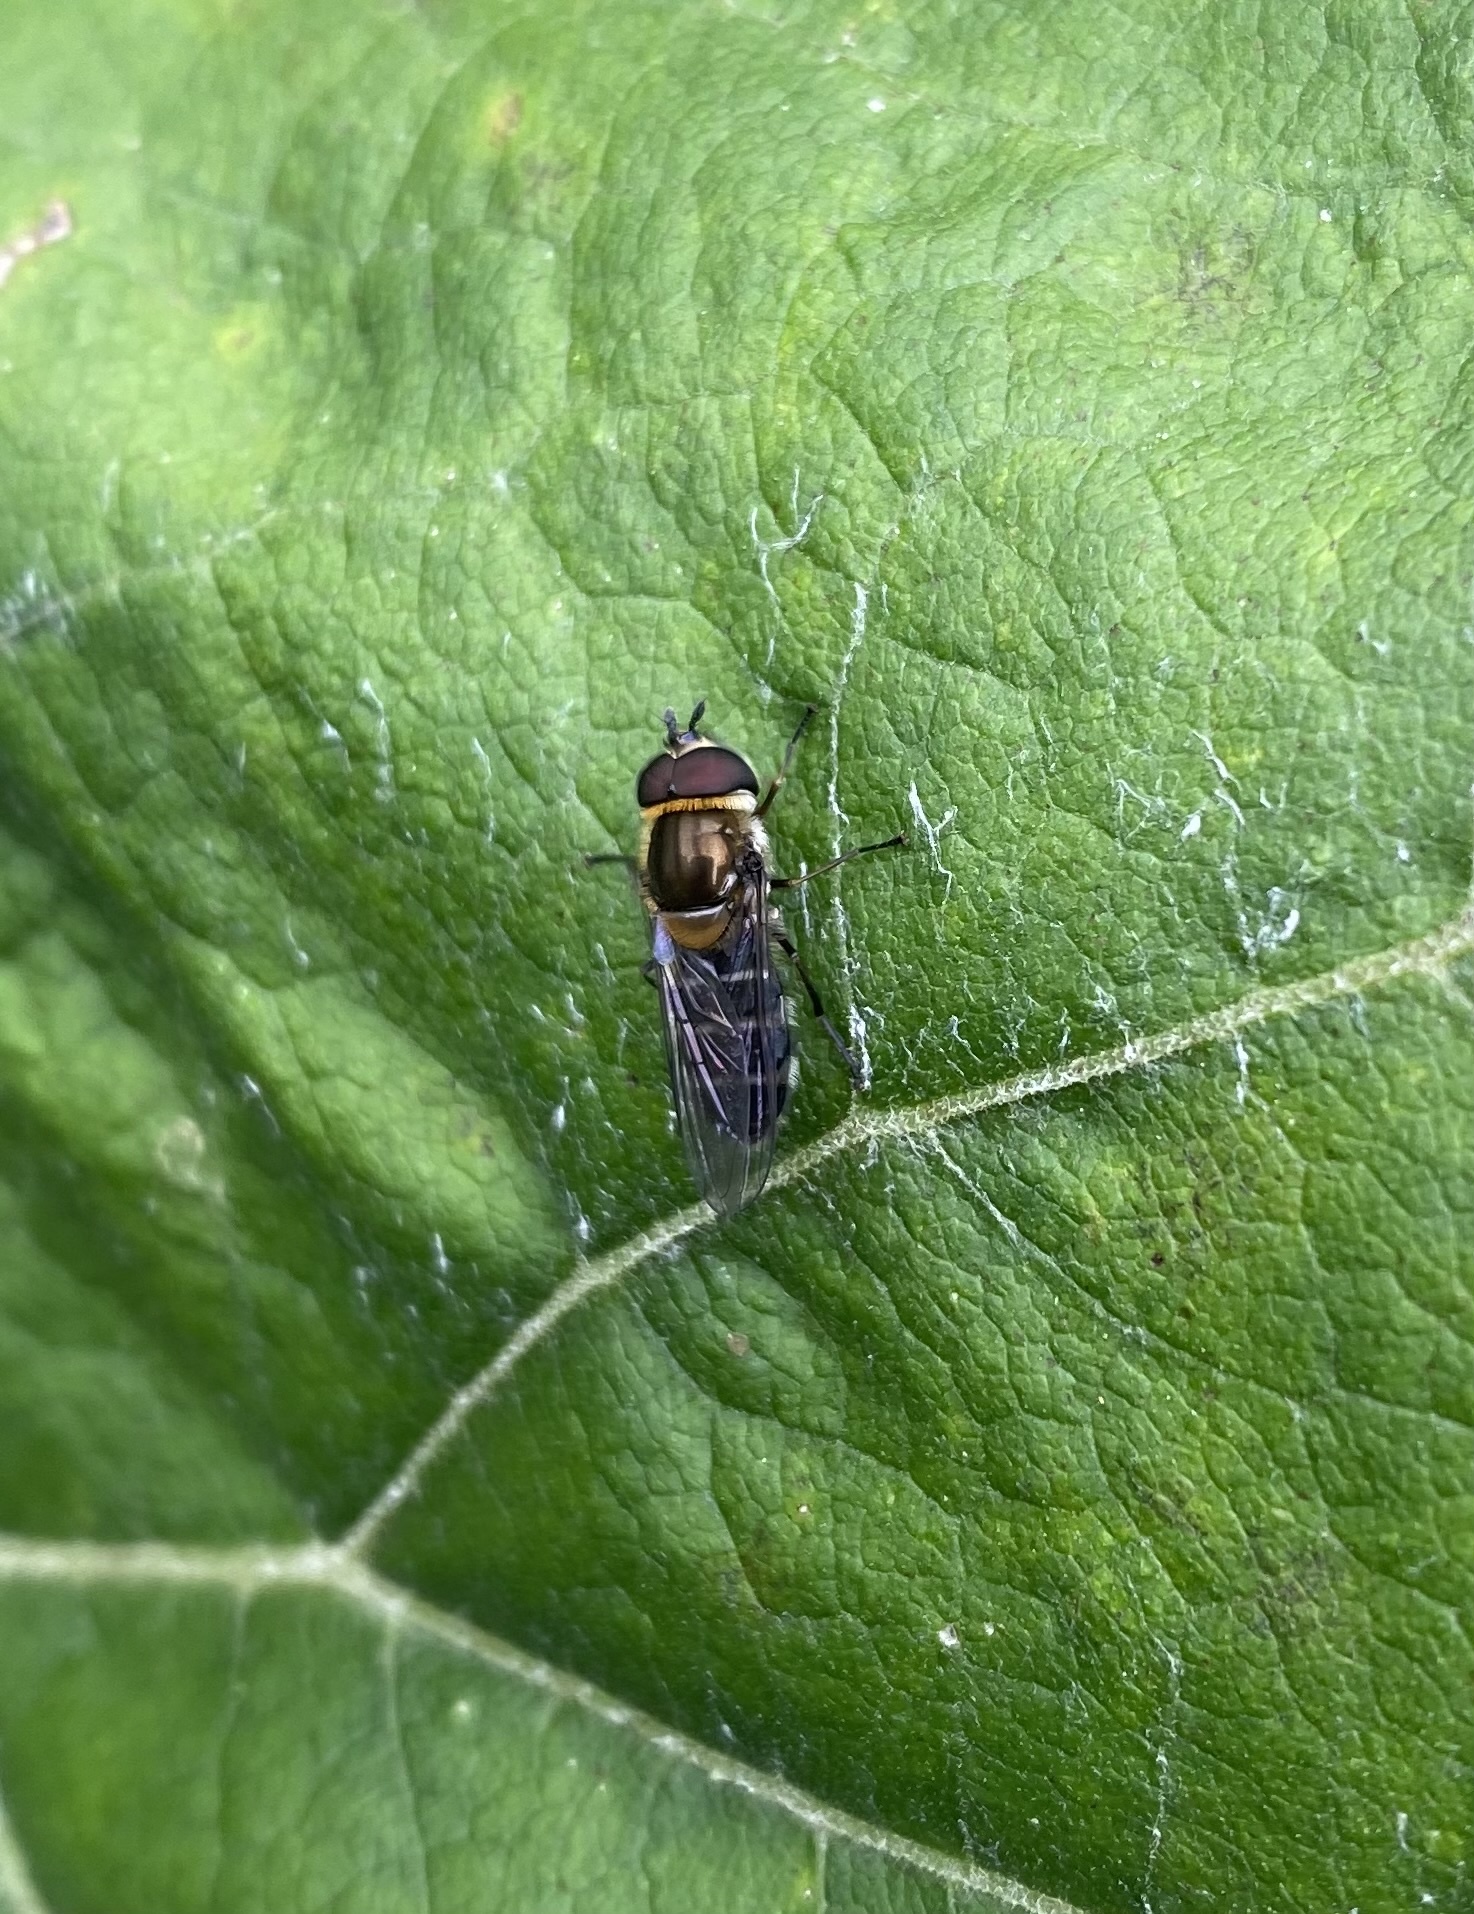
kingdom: Animalia
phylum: Arthropoda
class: Insecta
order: Diptera
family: Syrphidae
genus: Betasyrphus
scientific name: Betasyrphus serarius
